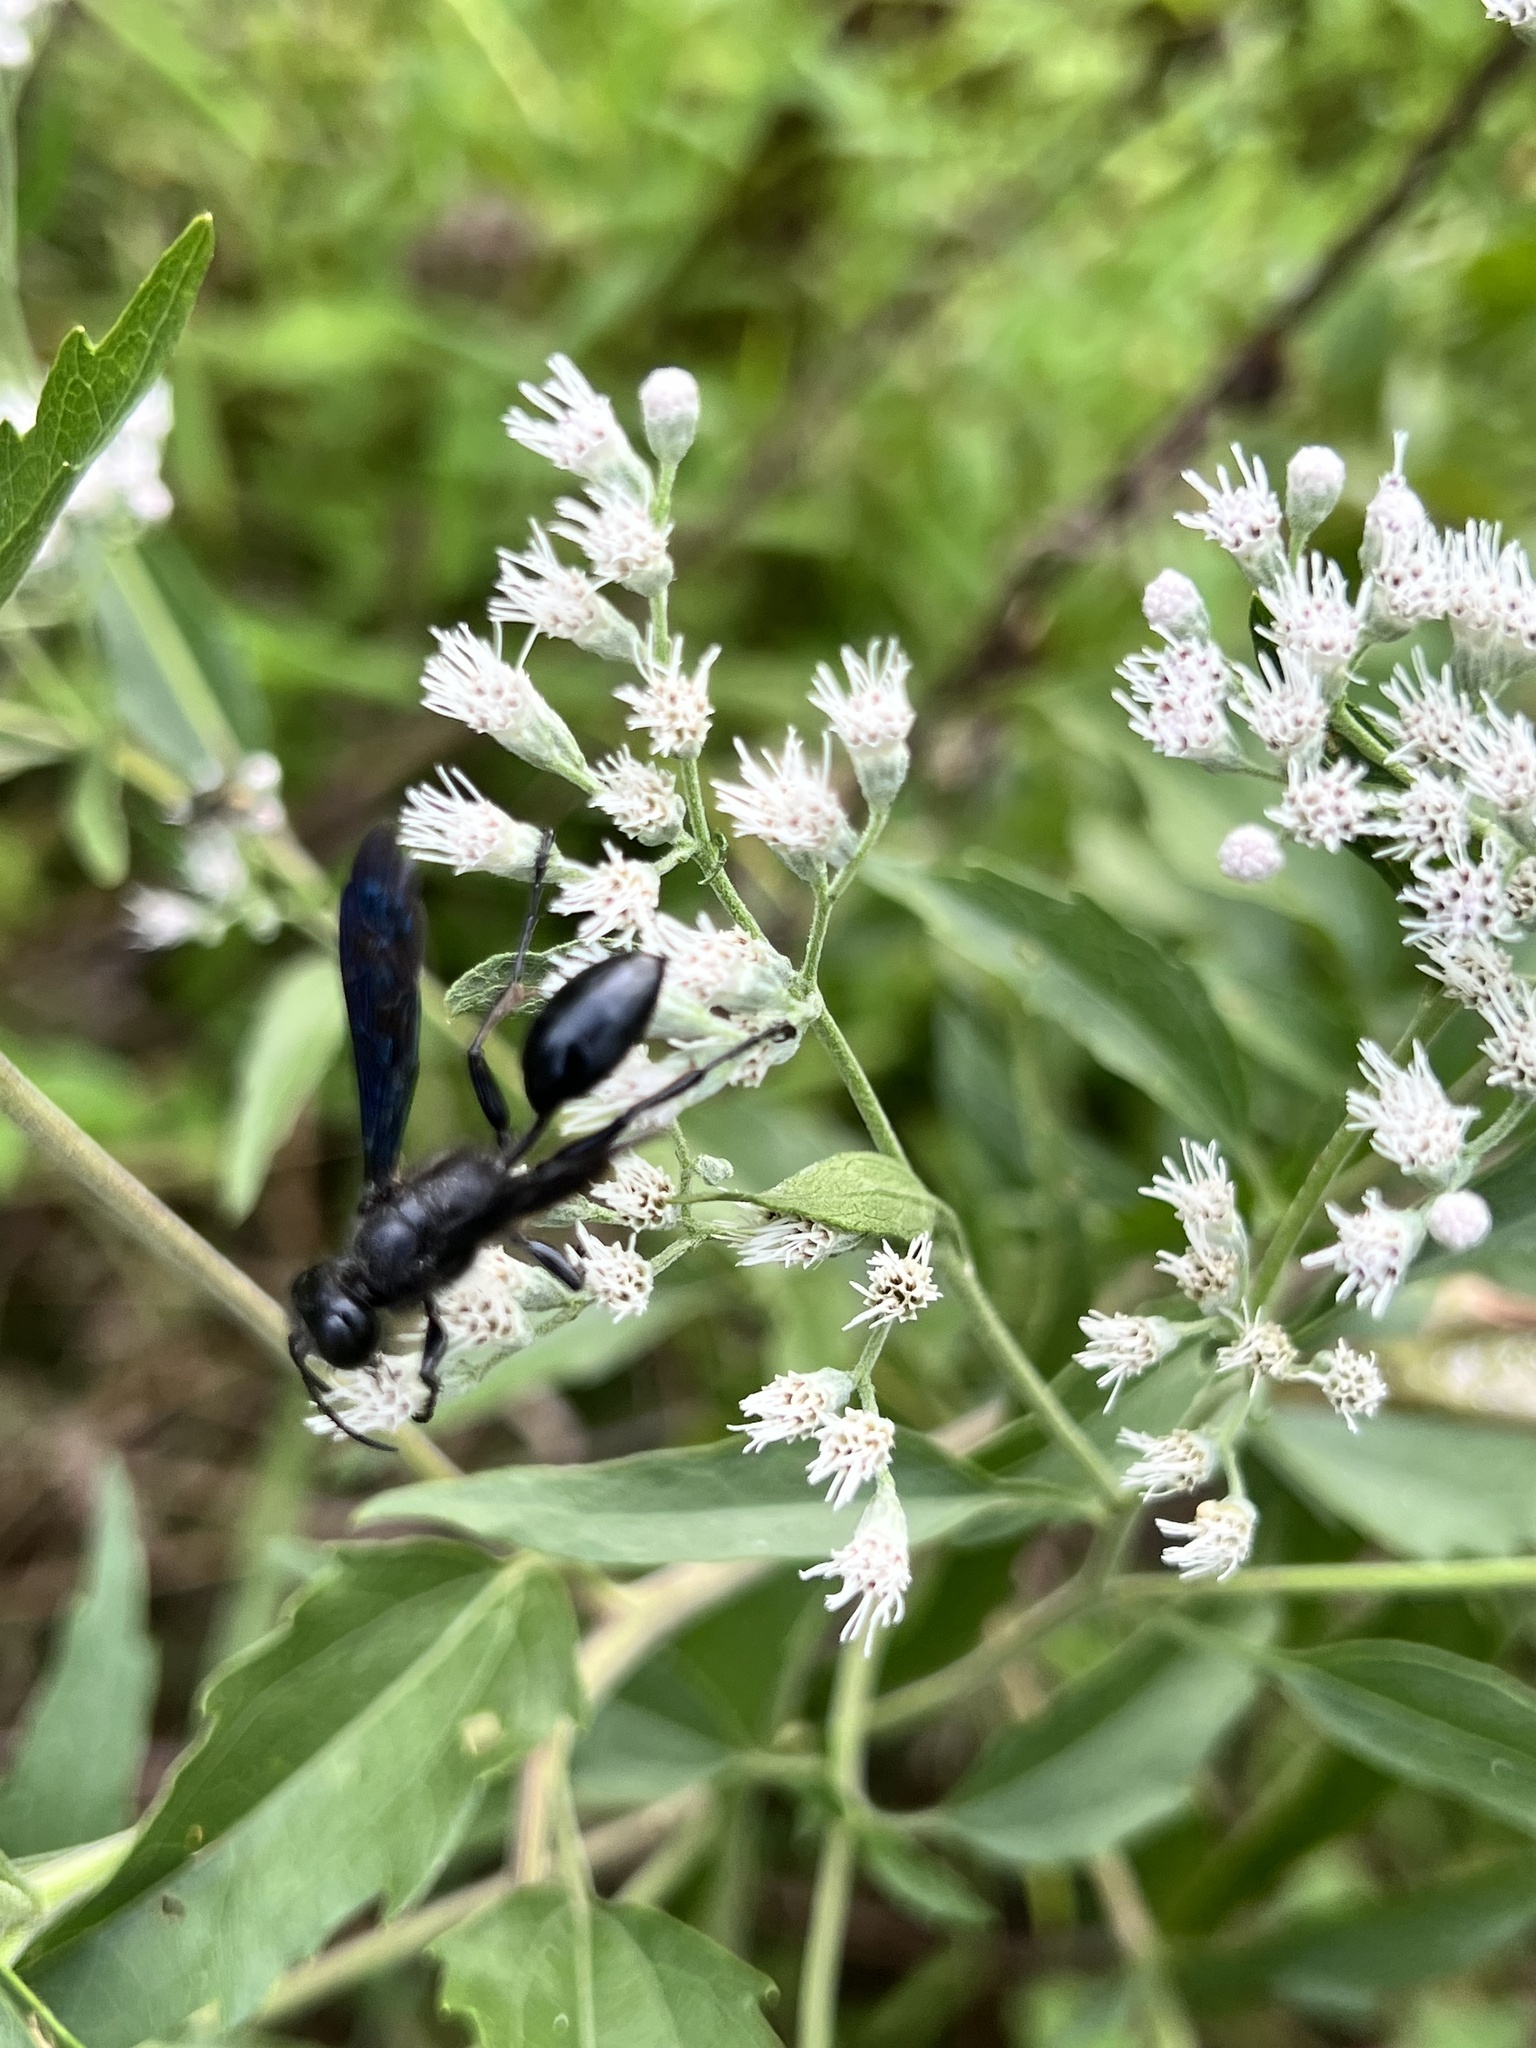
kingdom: Animalia
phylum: Arthropoda
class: Insecta
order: Hymenoptera
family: Sphecidae
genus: Isodontia
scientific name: Isodontia philadelphica
